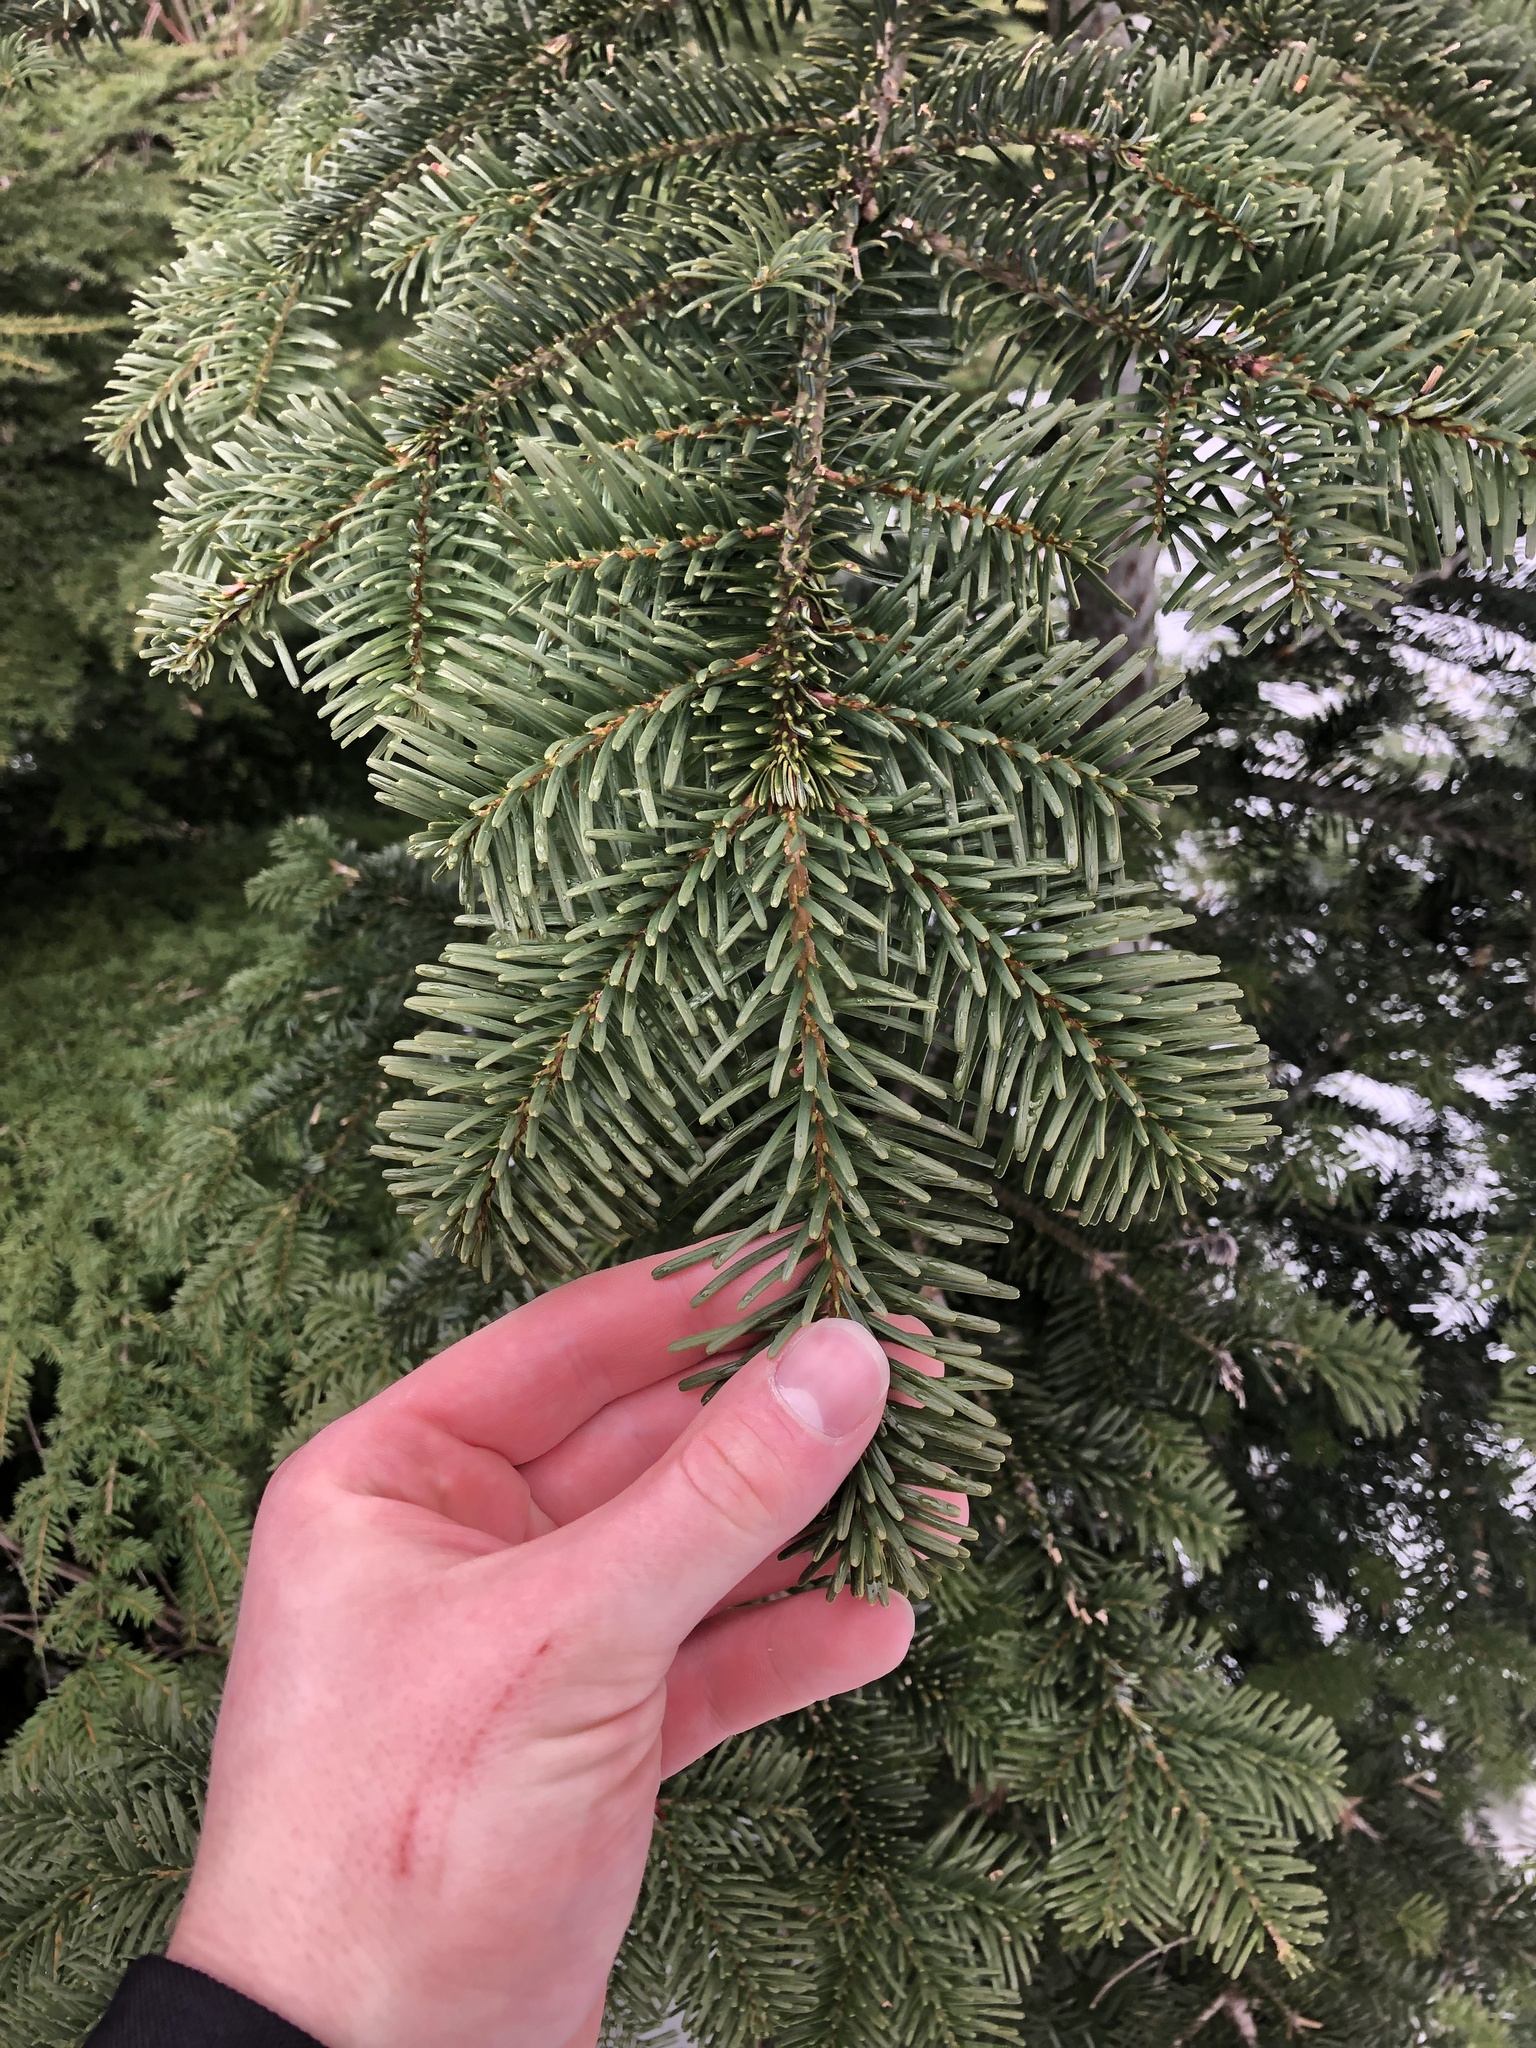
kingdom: Plantae
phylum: Tracheophyta
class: Pinopsida
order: Pinales
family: Pinaceae
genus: Abies
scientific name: Abies amabilis
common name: Pacific silver fir
